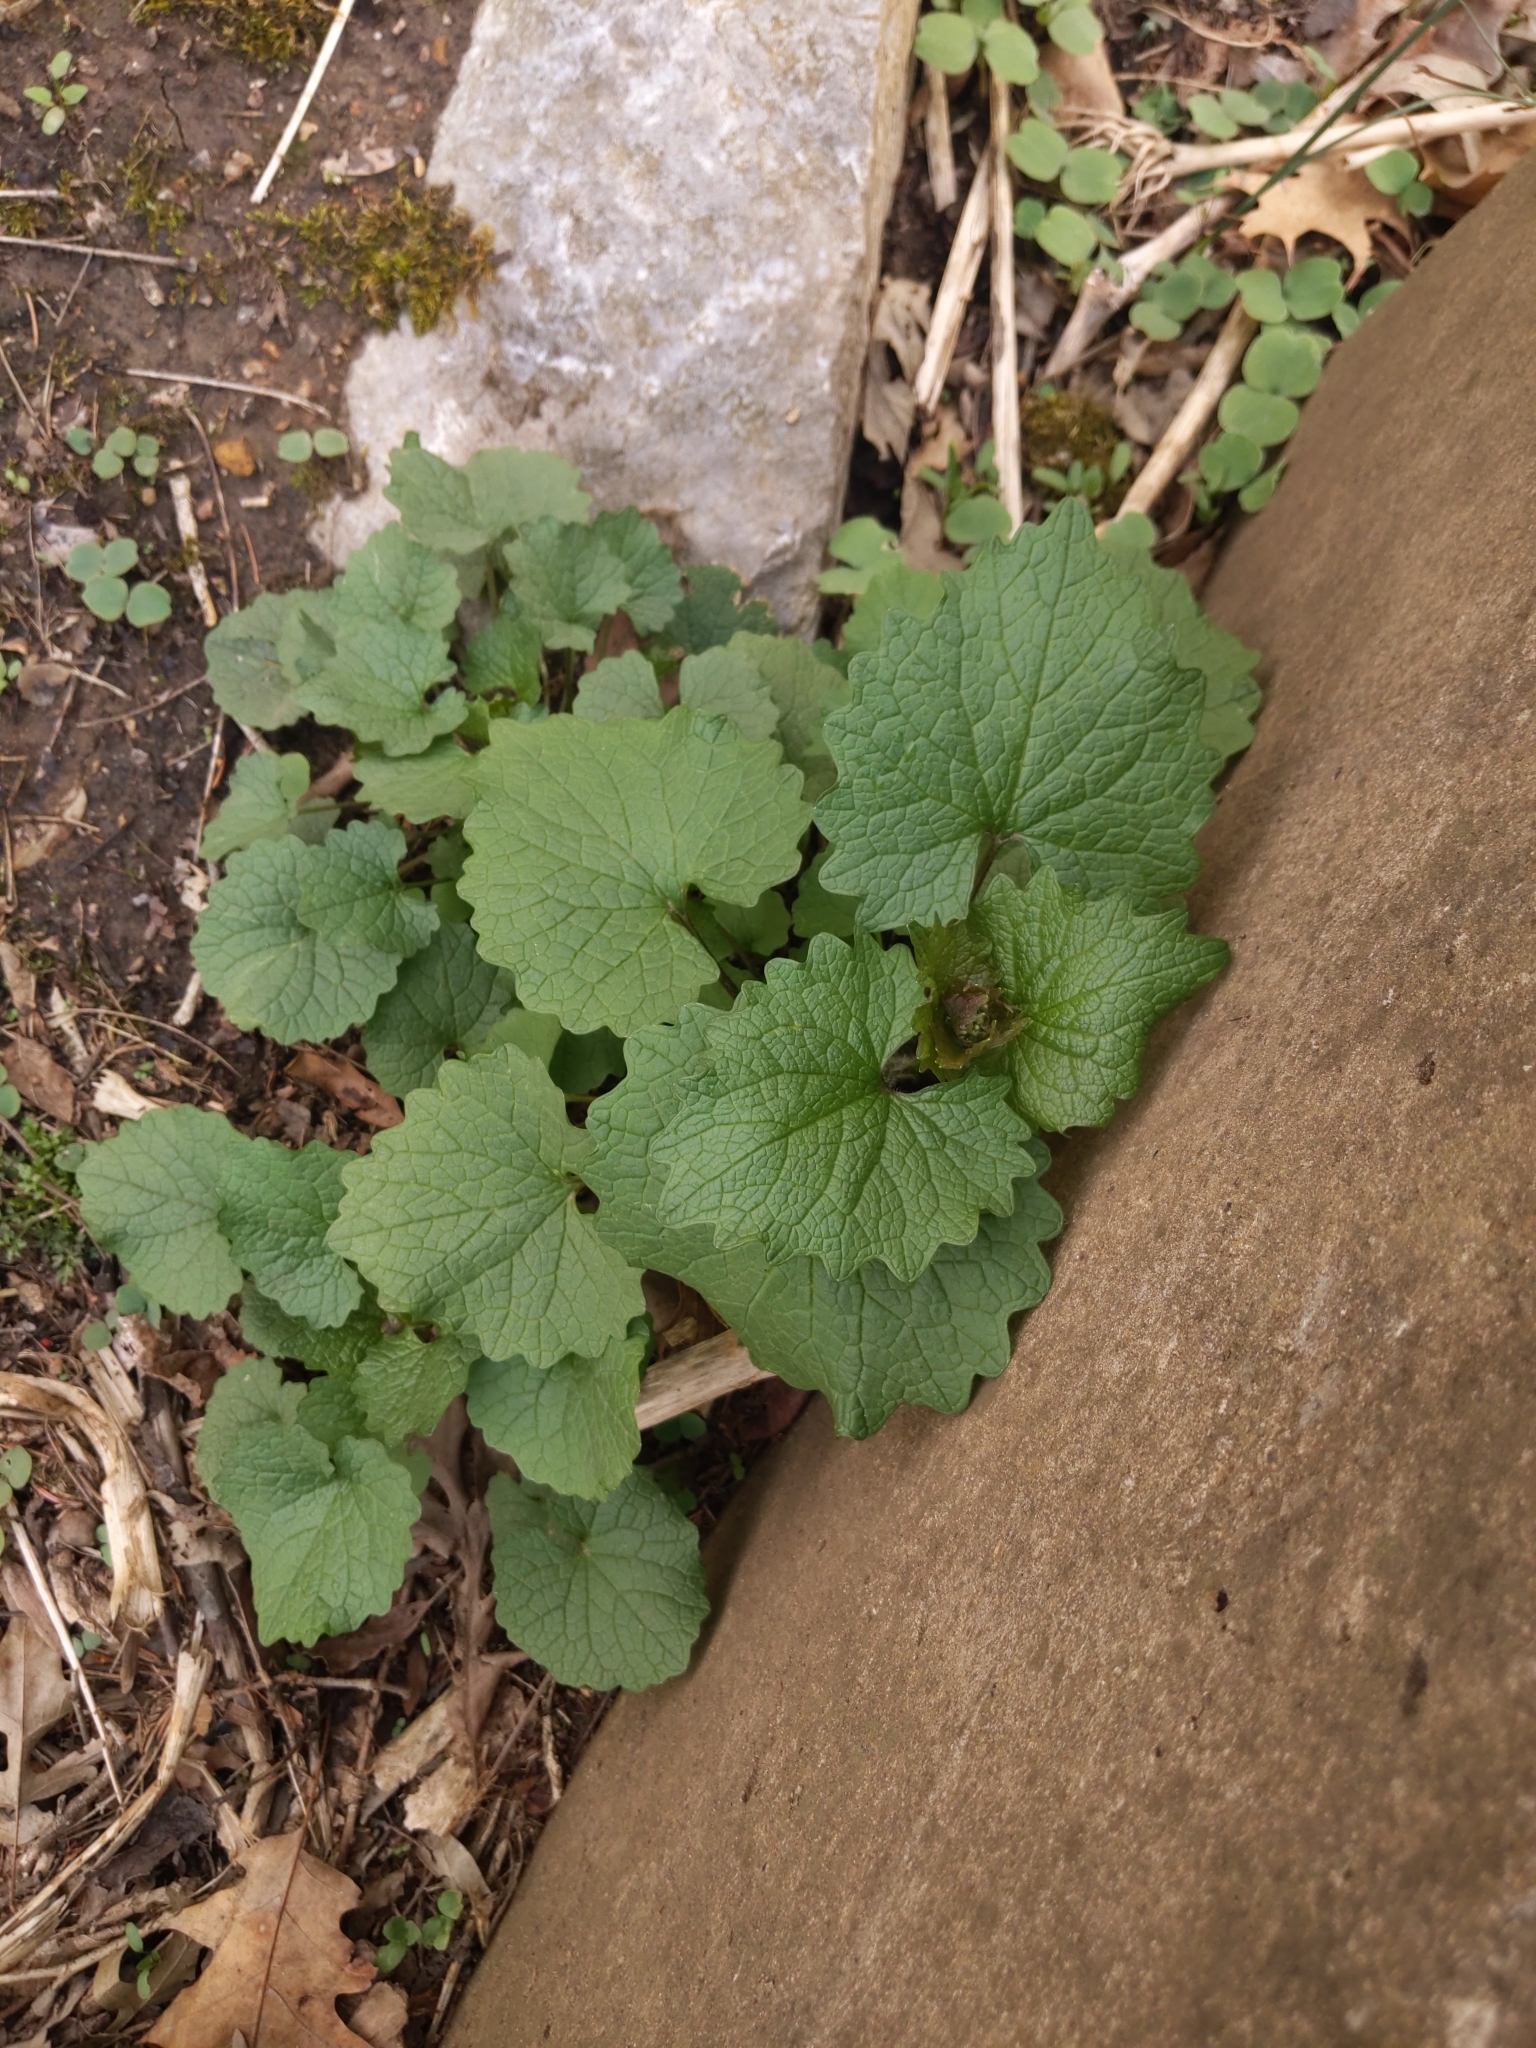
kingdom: Plantae
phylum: Tracheophyta
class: Magnoliopsida
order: Brassicales
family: Brassicaceae
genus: Alliaria
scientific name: Alliaria petiolata
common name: Garlic mustard
